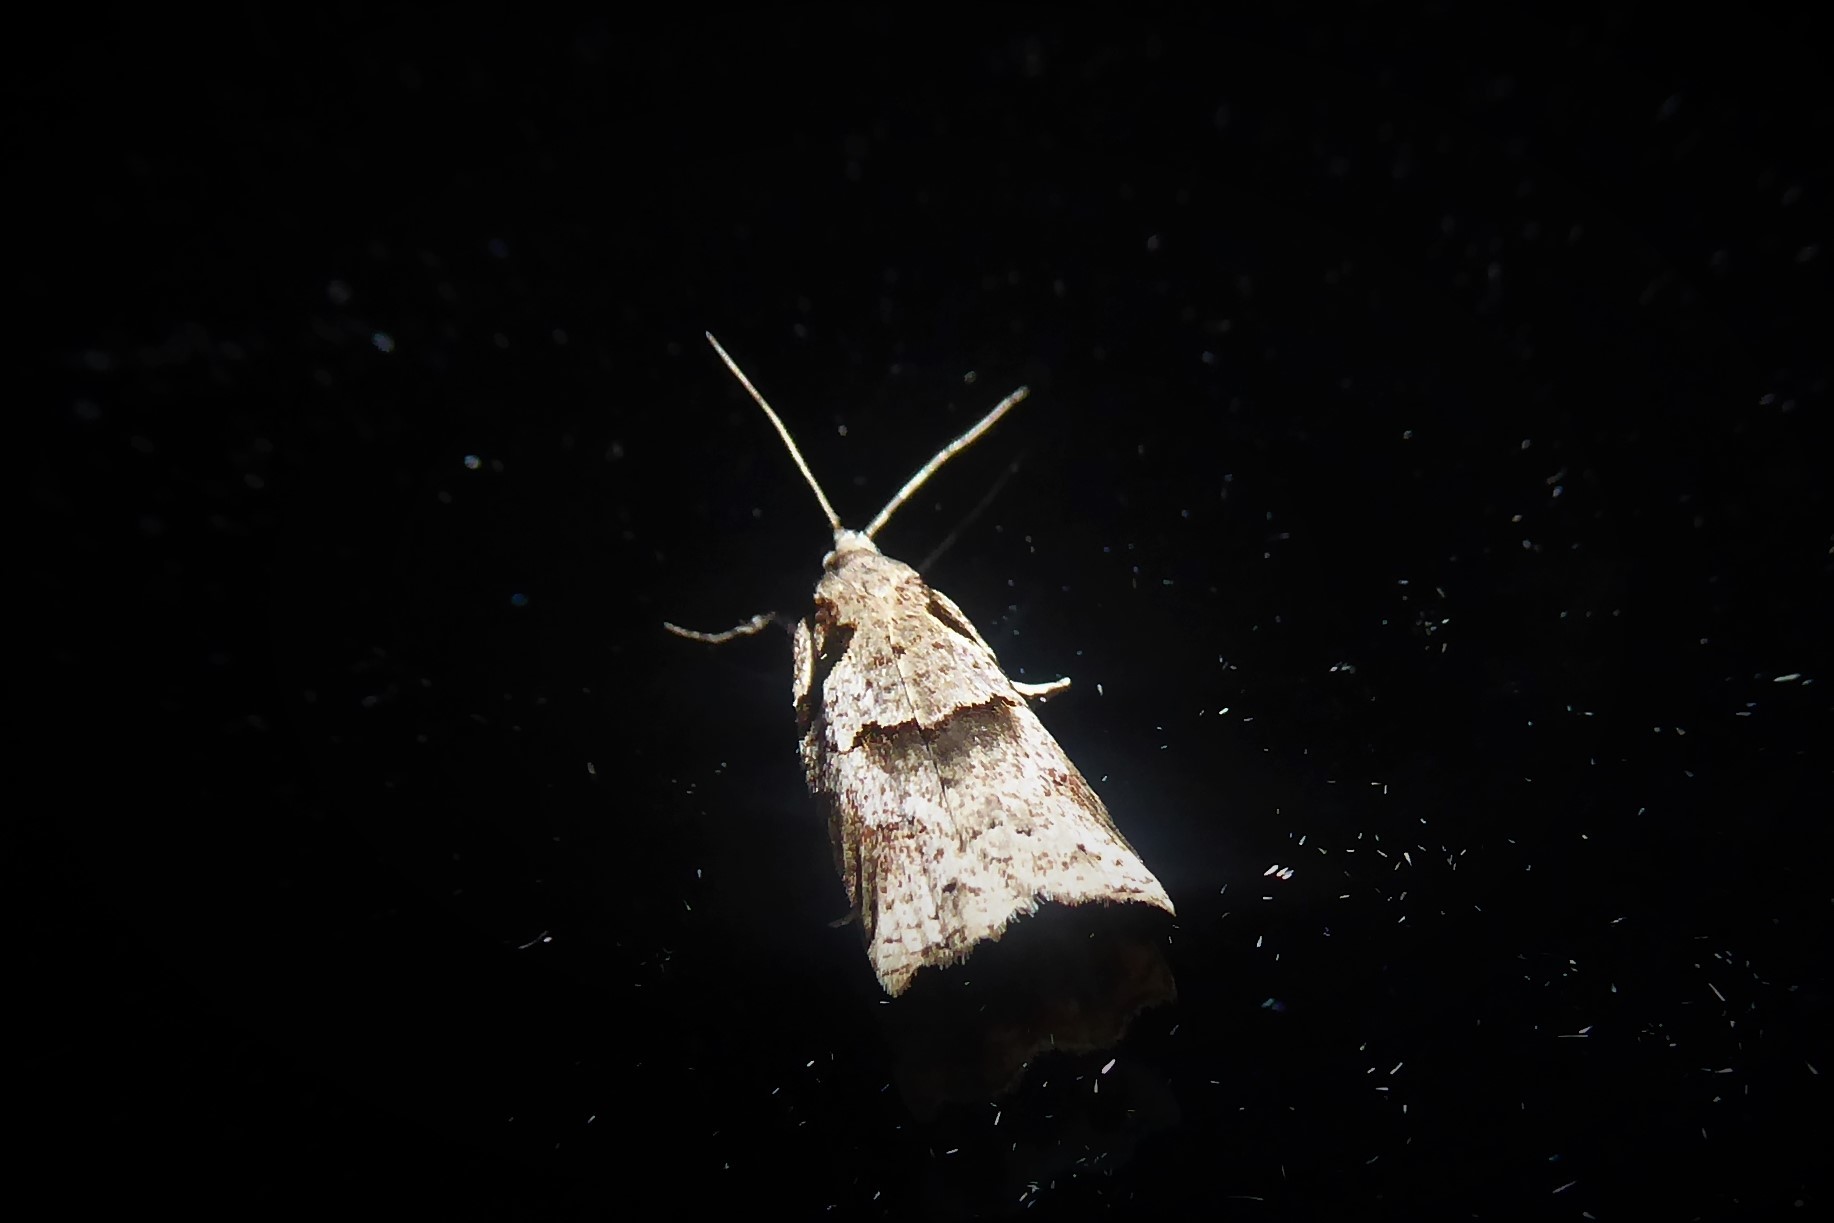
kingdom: Animalia
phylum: Arthropoda
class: Insecta
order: Lepidoptera
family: Tortricidae
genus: Harmologa
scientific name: Harmologa amplexana
